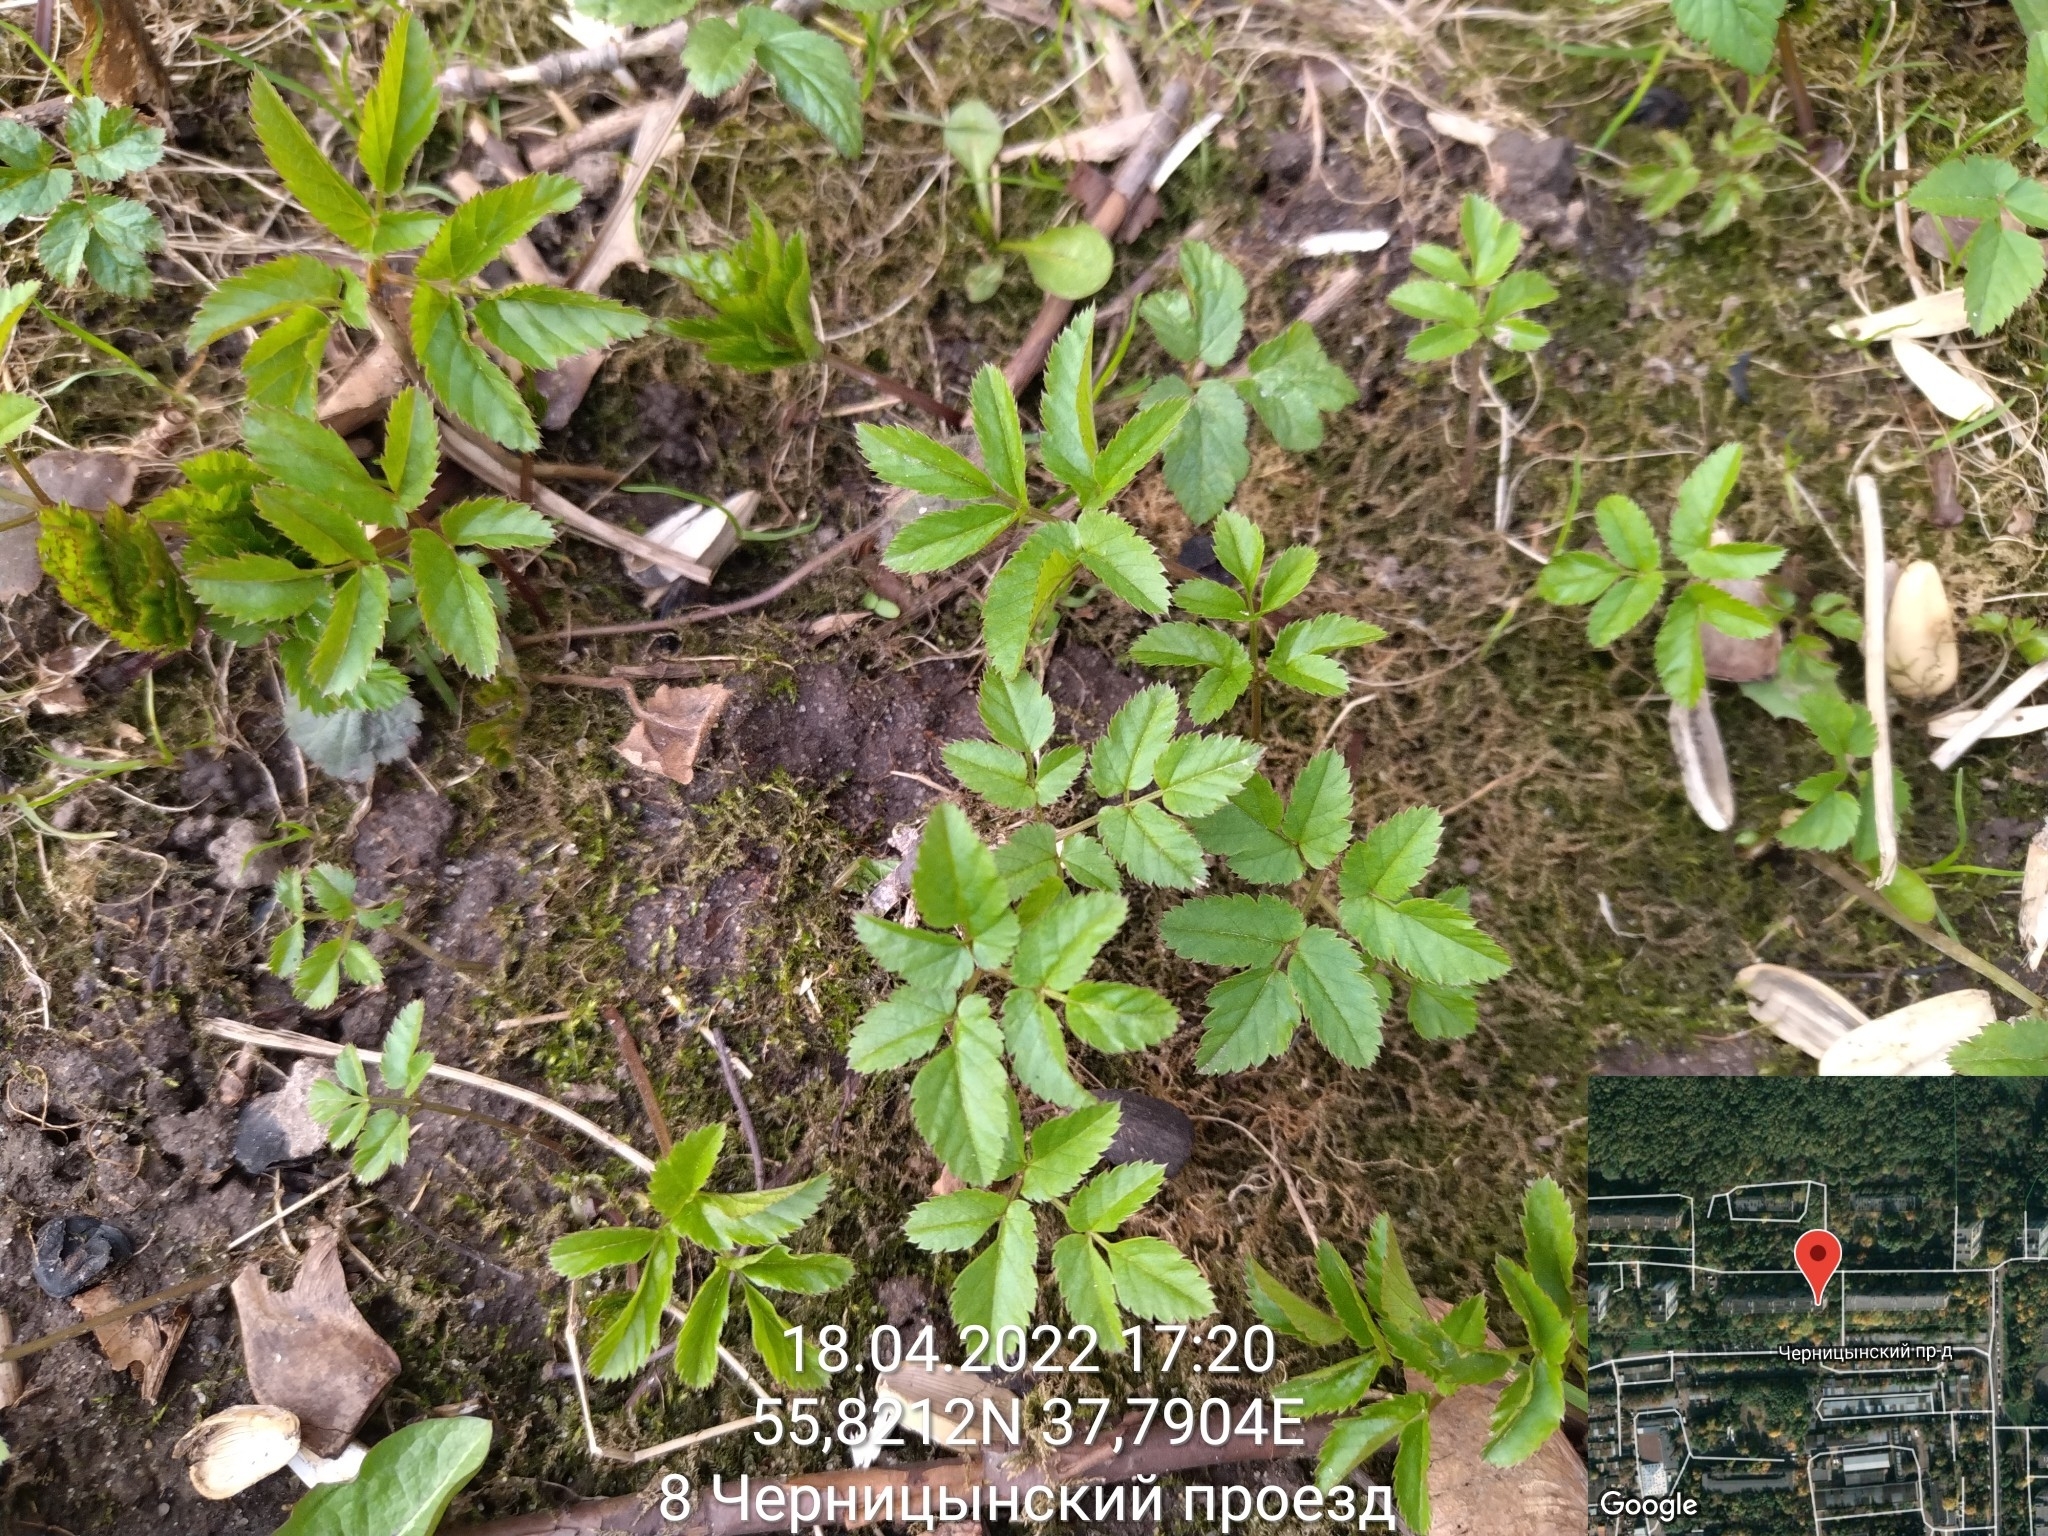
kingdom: Plantae
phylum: Tracheophyta
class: Magnoliopsida
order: Apiales
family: Apiaceae
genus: Aegopodium
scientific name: Aegopodium podagraria
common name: Ground-elder
